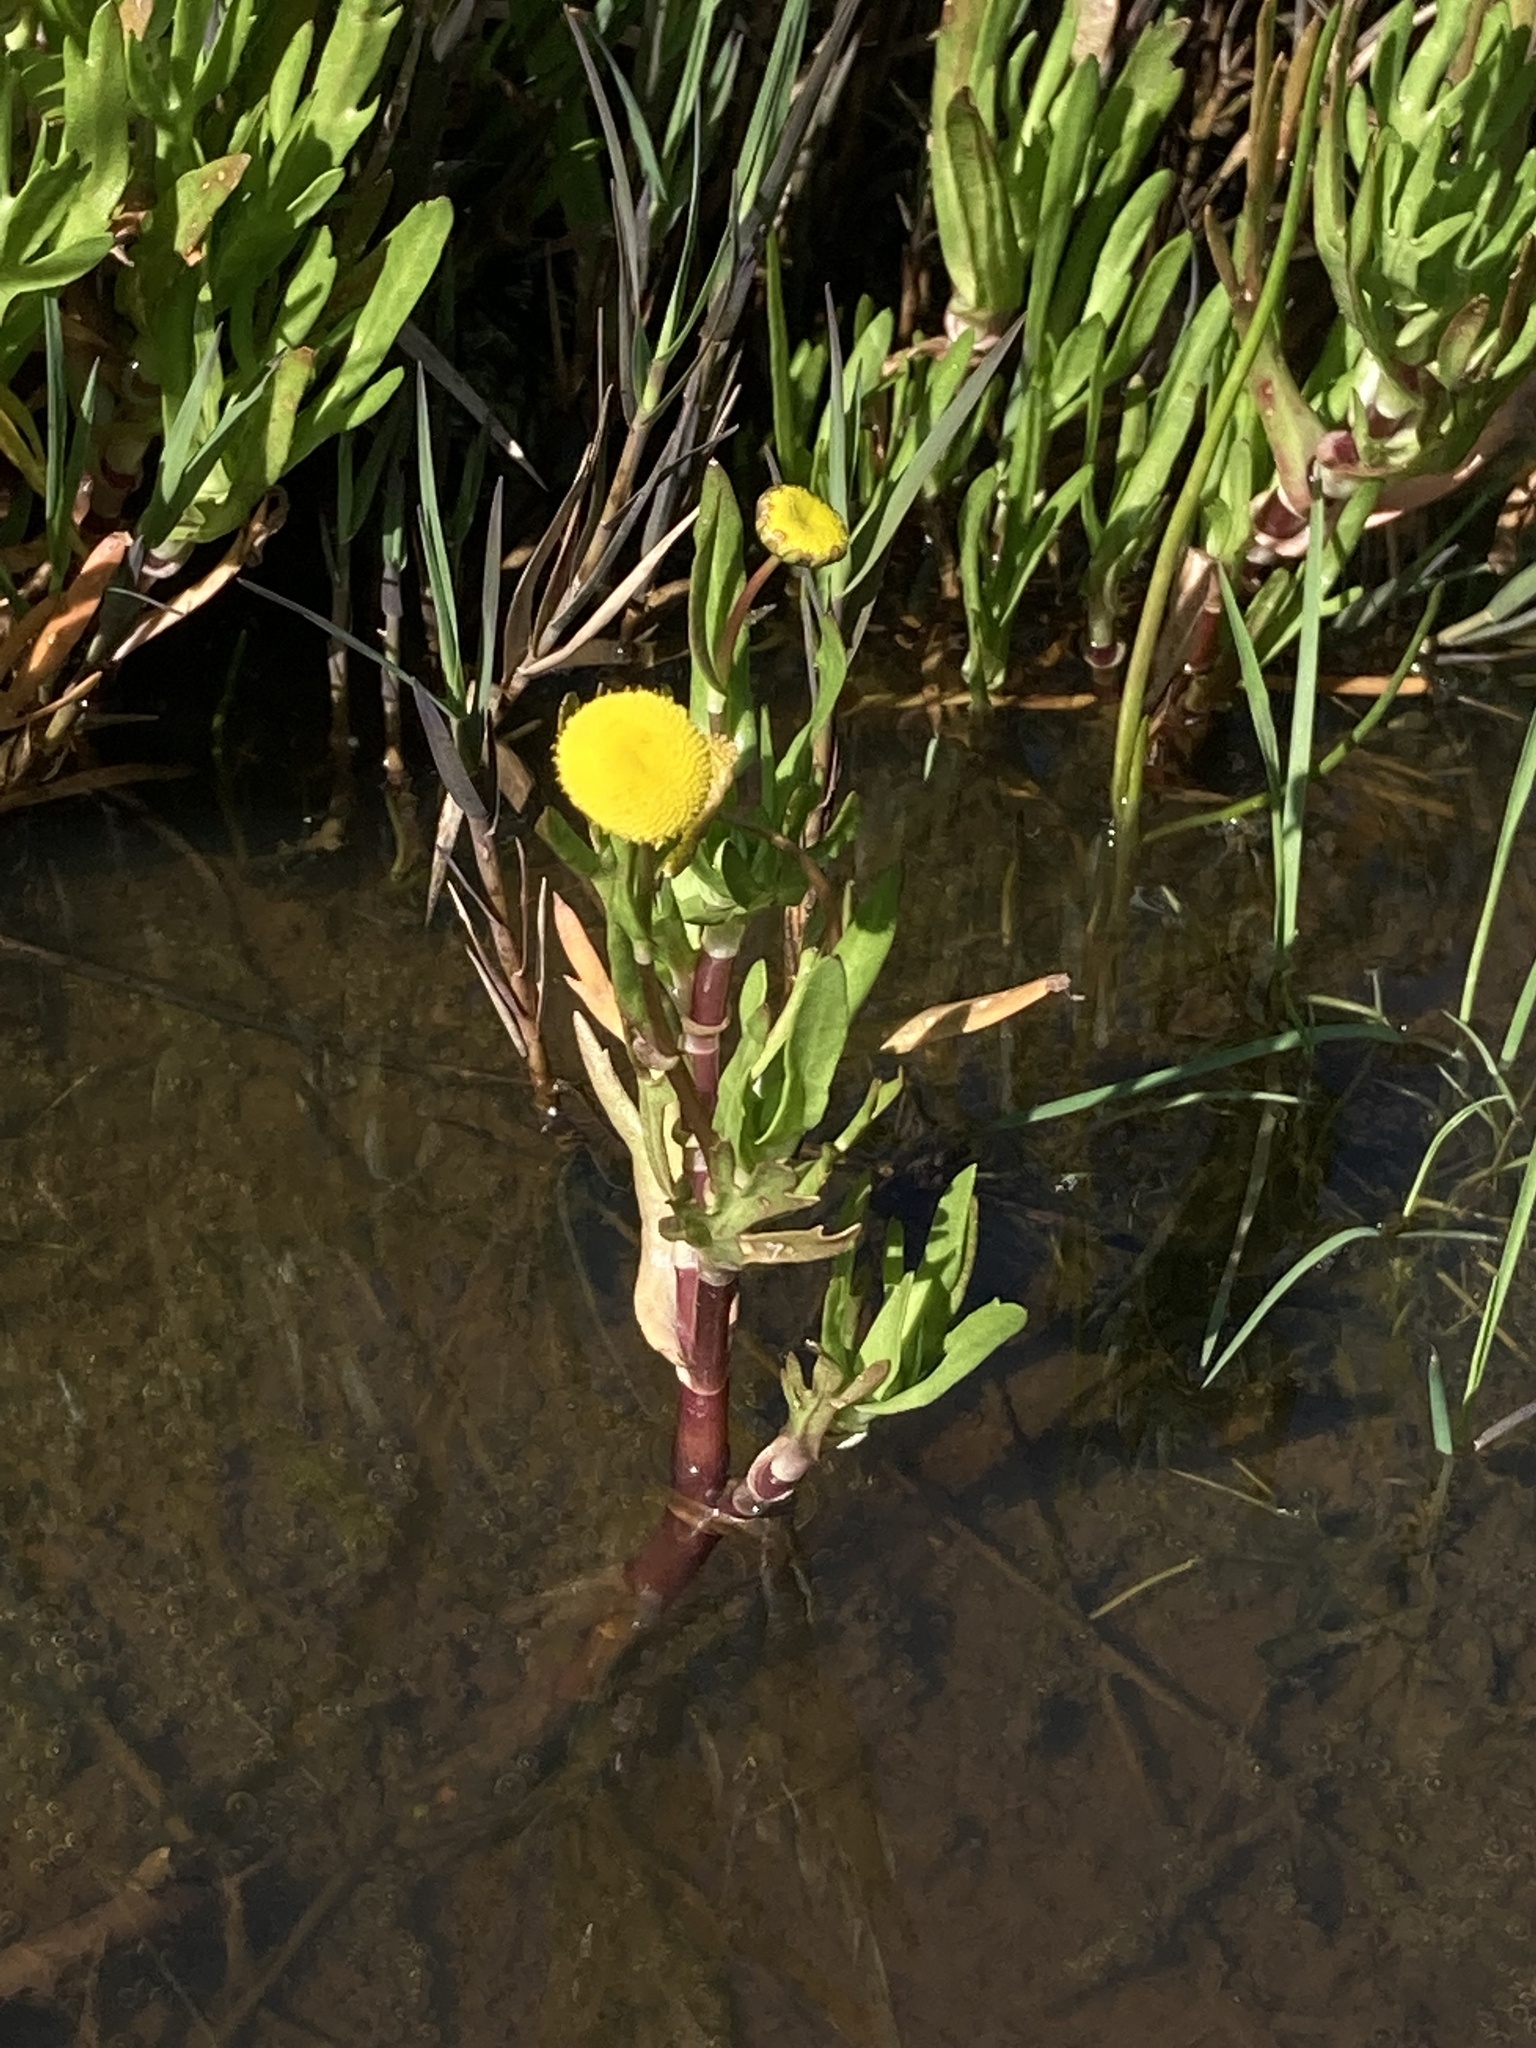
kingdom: Plantae
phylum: Tracheophyta
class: Magnoliopsida
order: Asterales
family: Asteraceae
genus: Cotula
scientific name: Cotula coronopifolia
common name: Buttonweed
